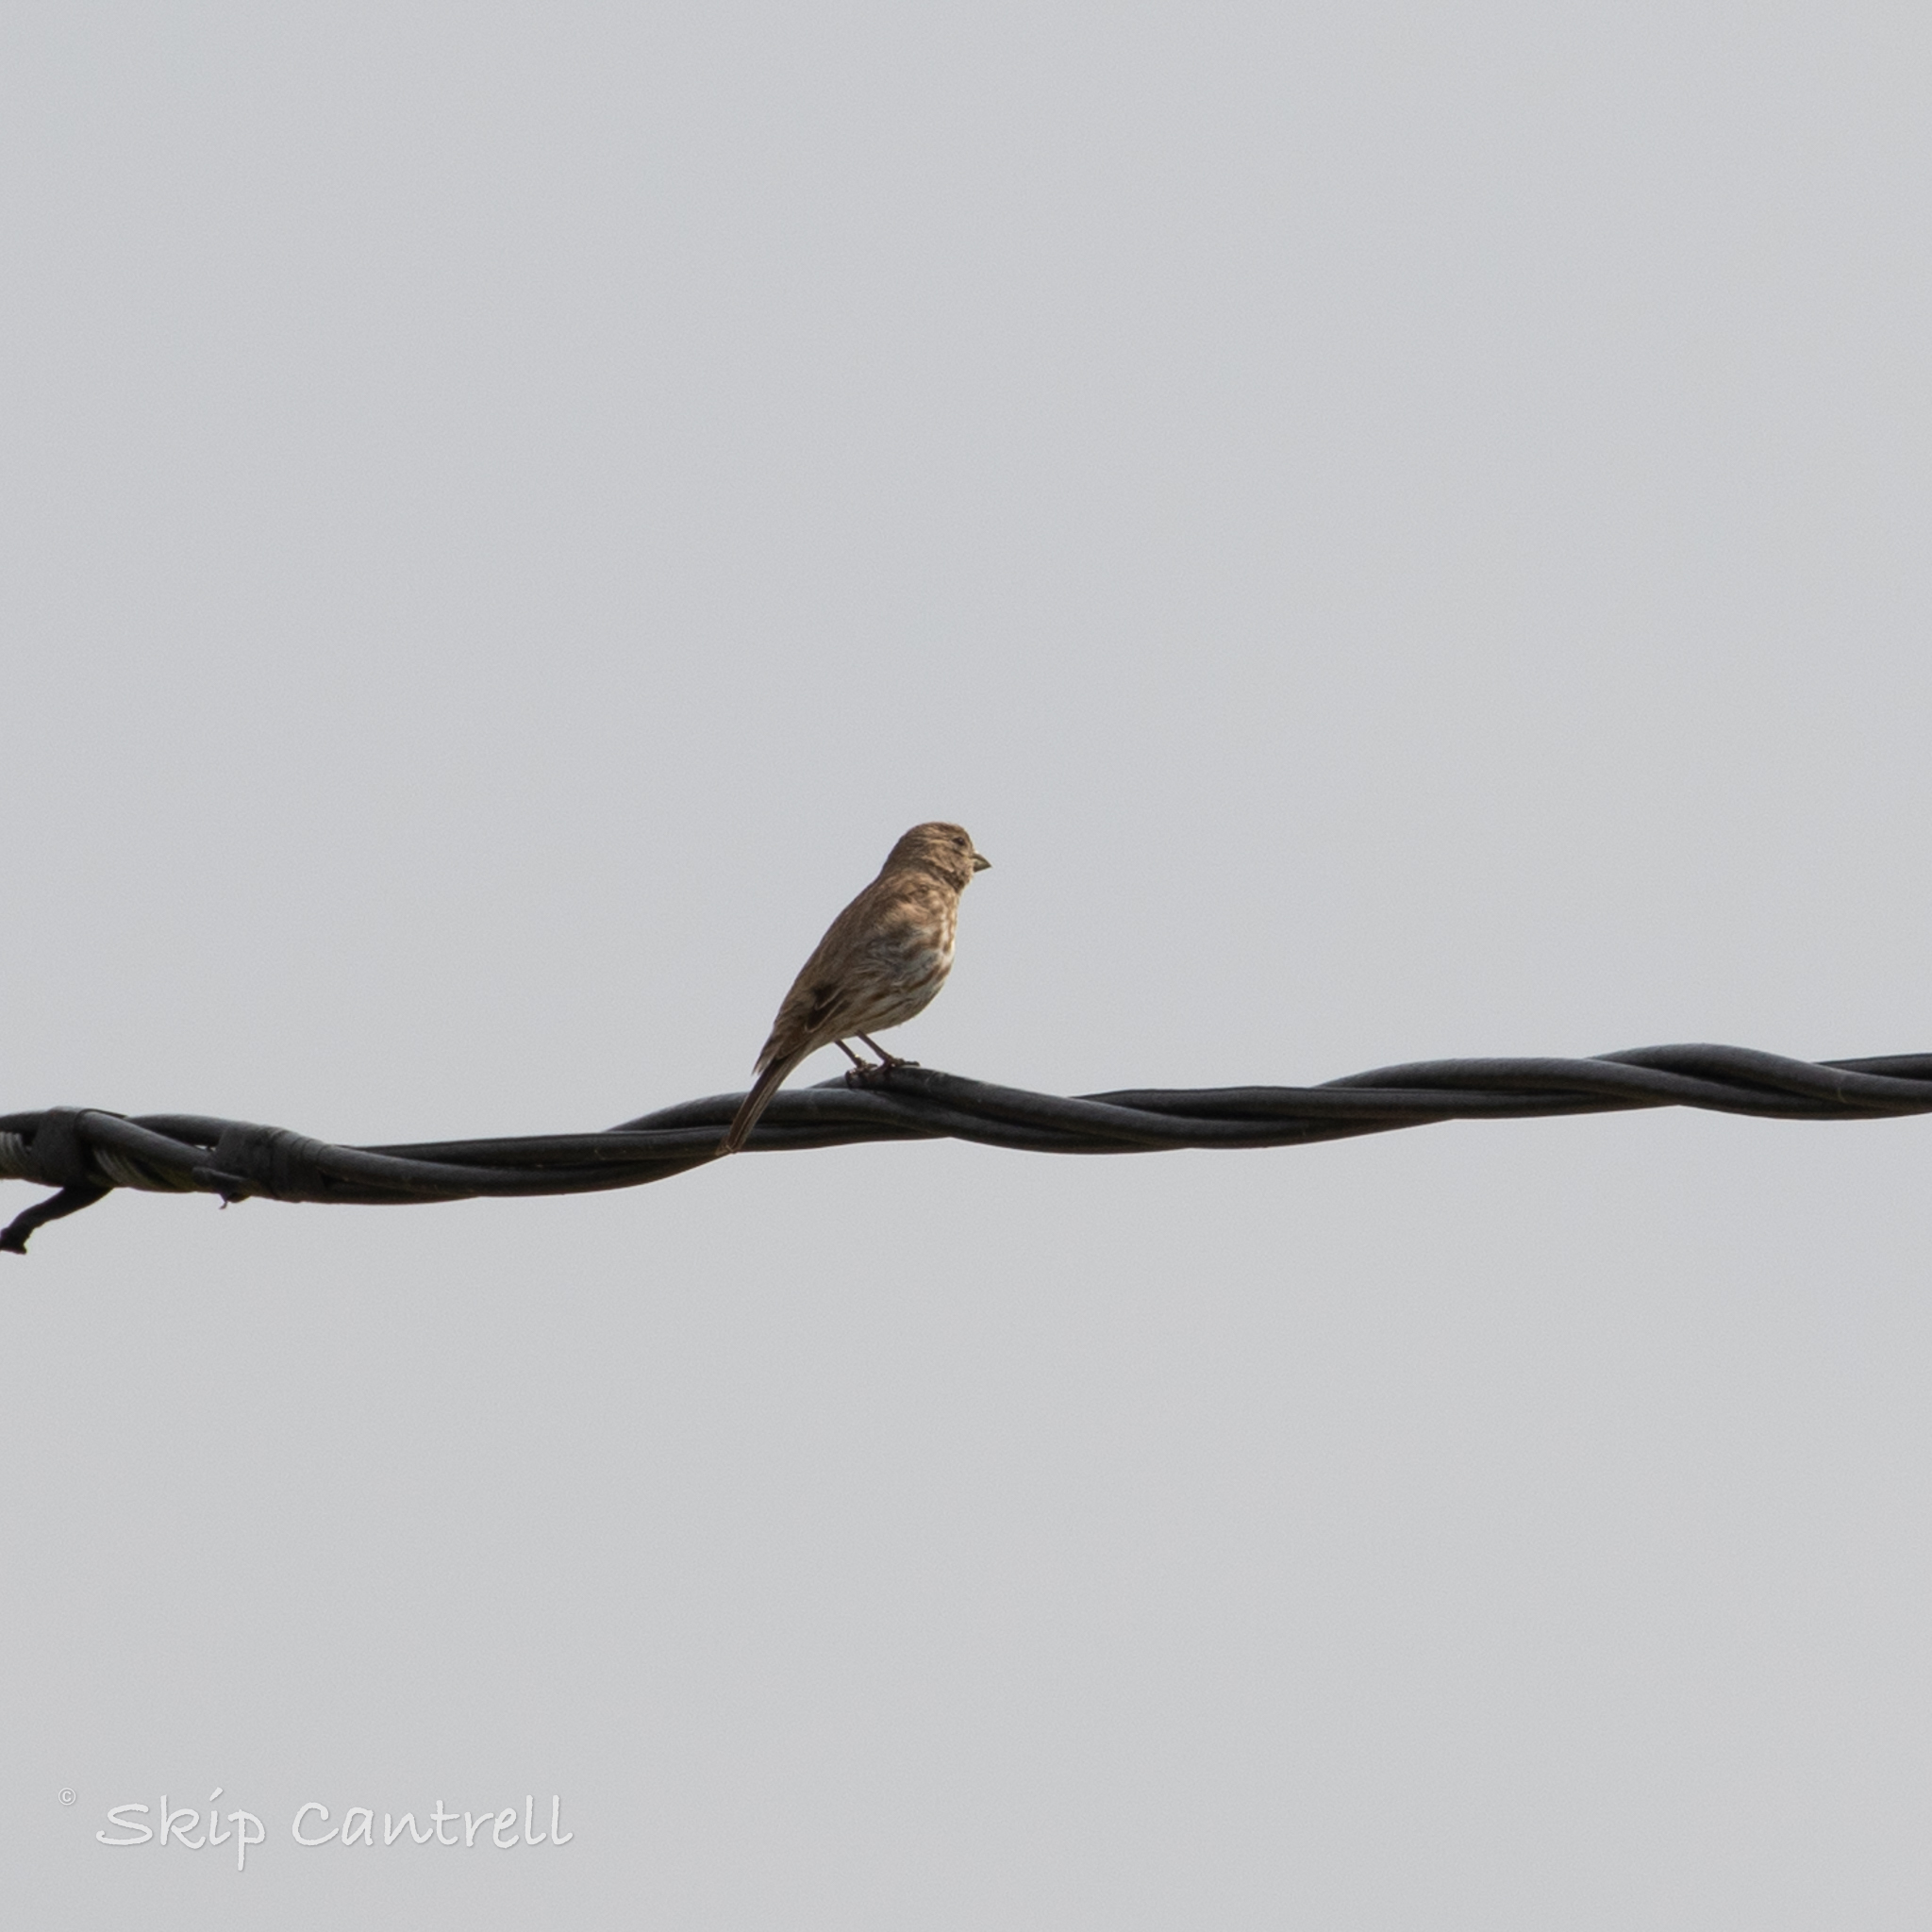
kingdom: Animalia
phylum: Chordata
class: Aves
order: Passeriformes
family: Fringillidae
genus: Haemorhous
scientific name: Haemorhous mexicanus
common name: House finch
